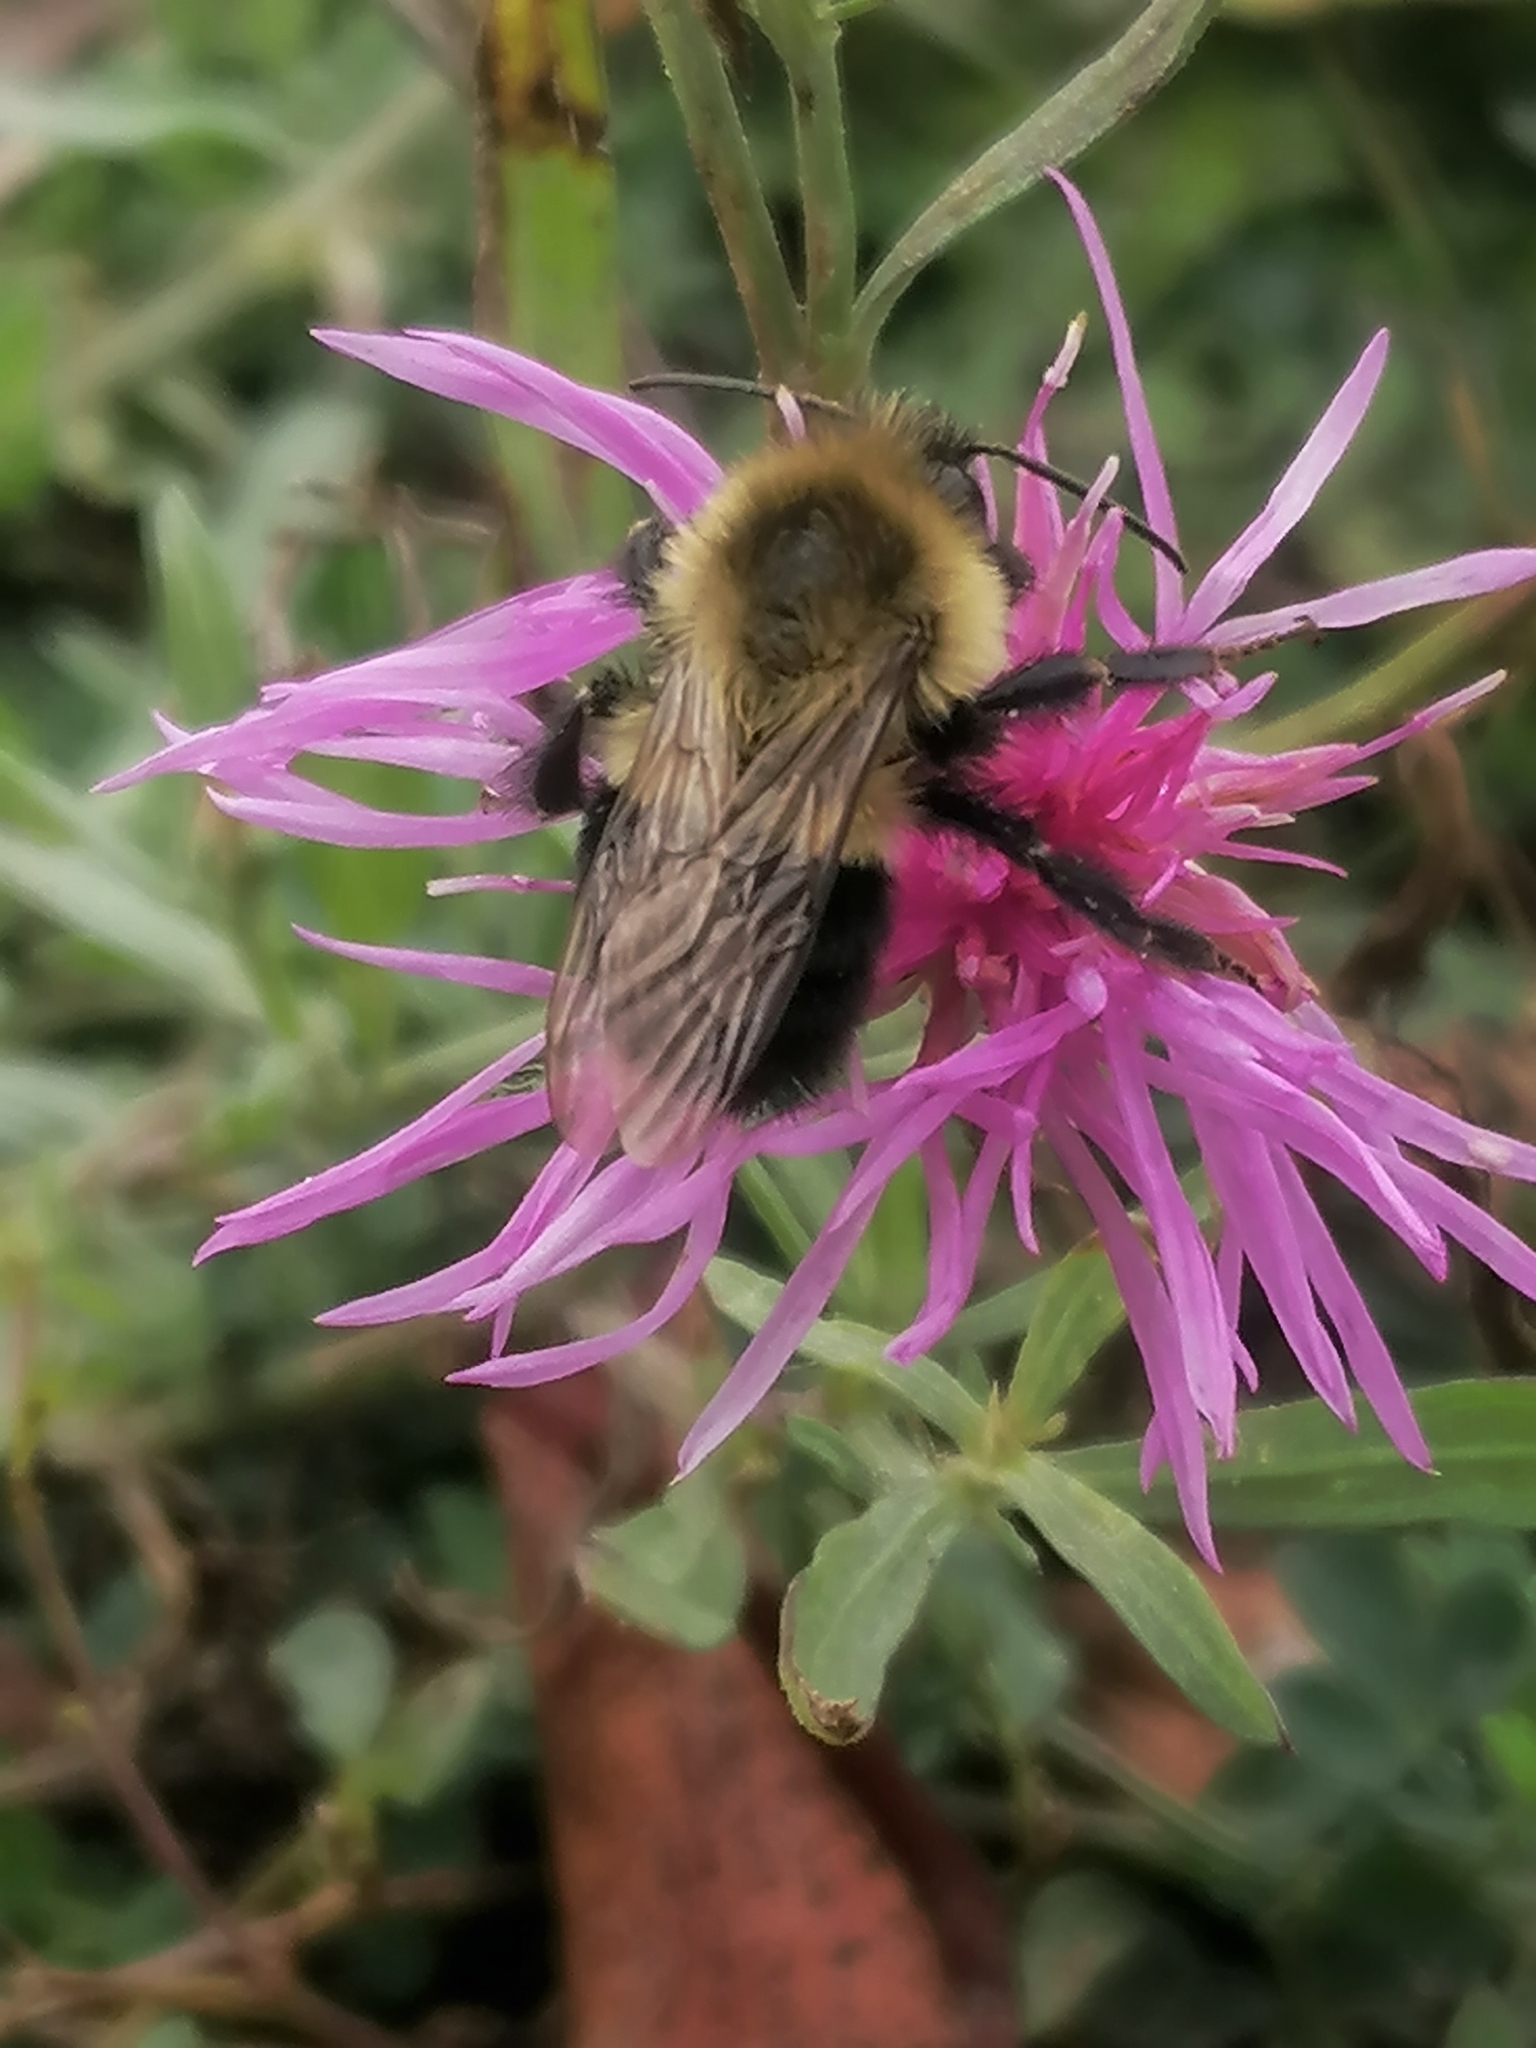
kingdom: Animalia
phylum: Arthropoda
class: Insecta
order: Hymenoptera
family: Apidae
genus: Bombus
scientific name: Bombus impatiens
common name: Common eastern bumble bee
